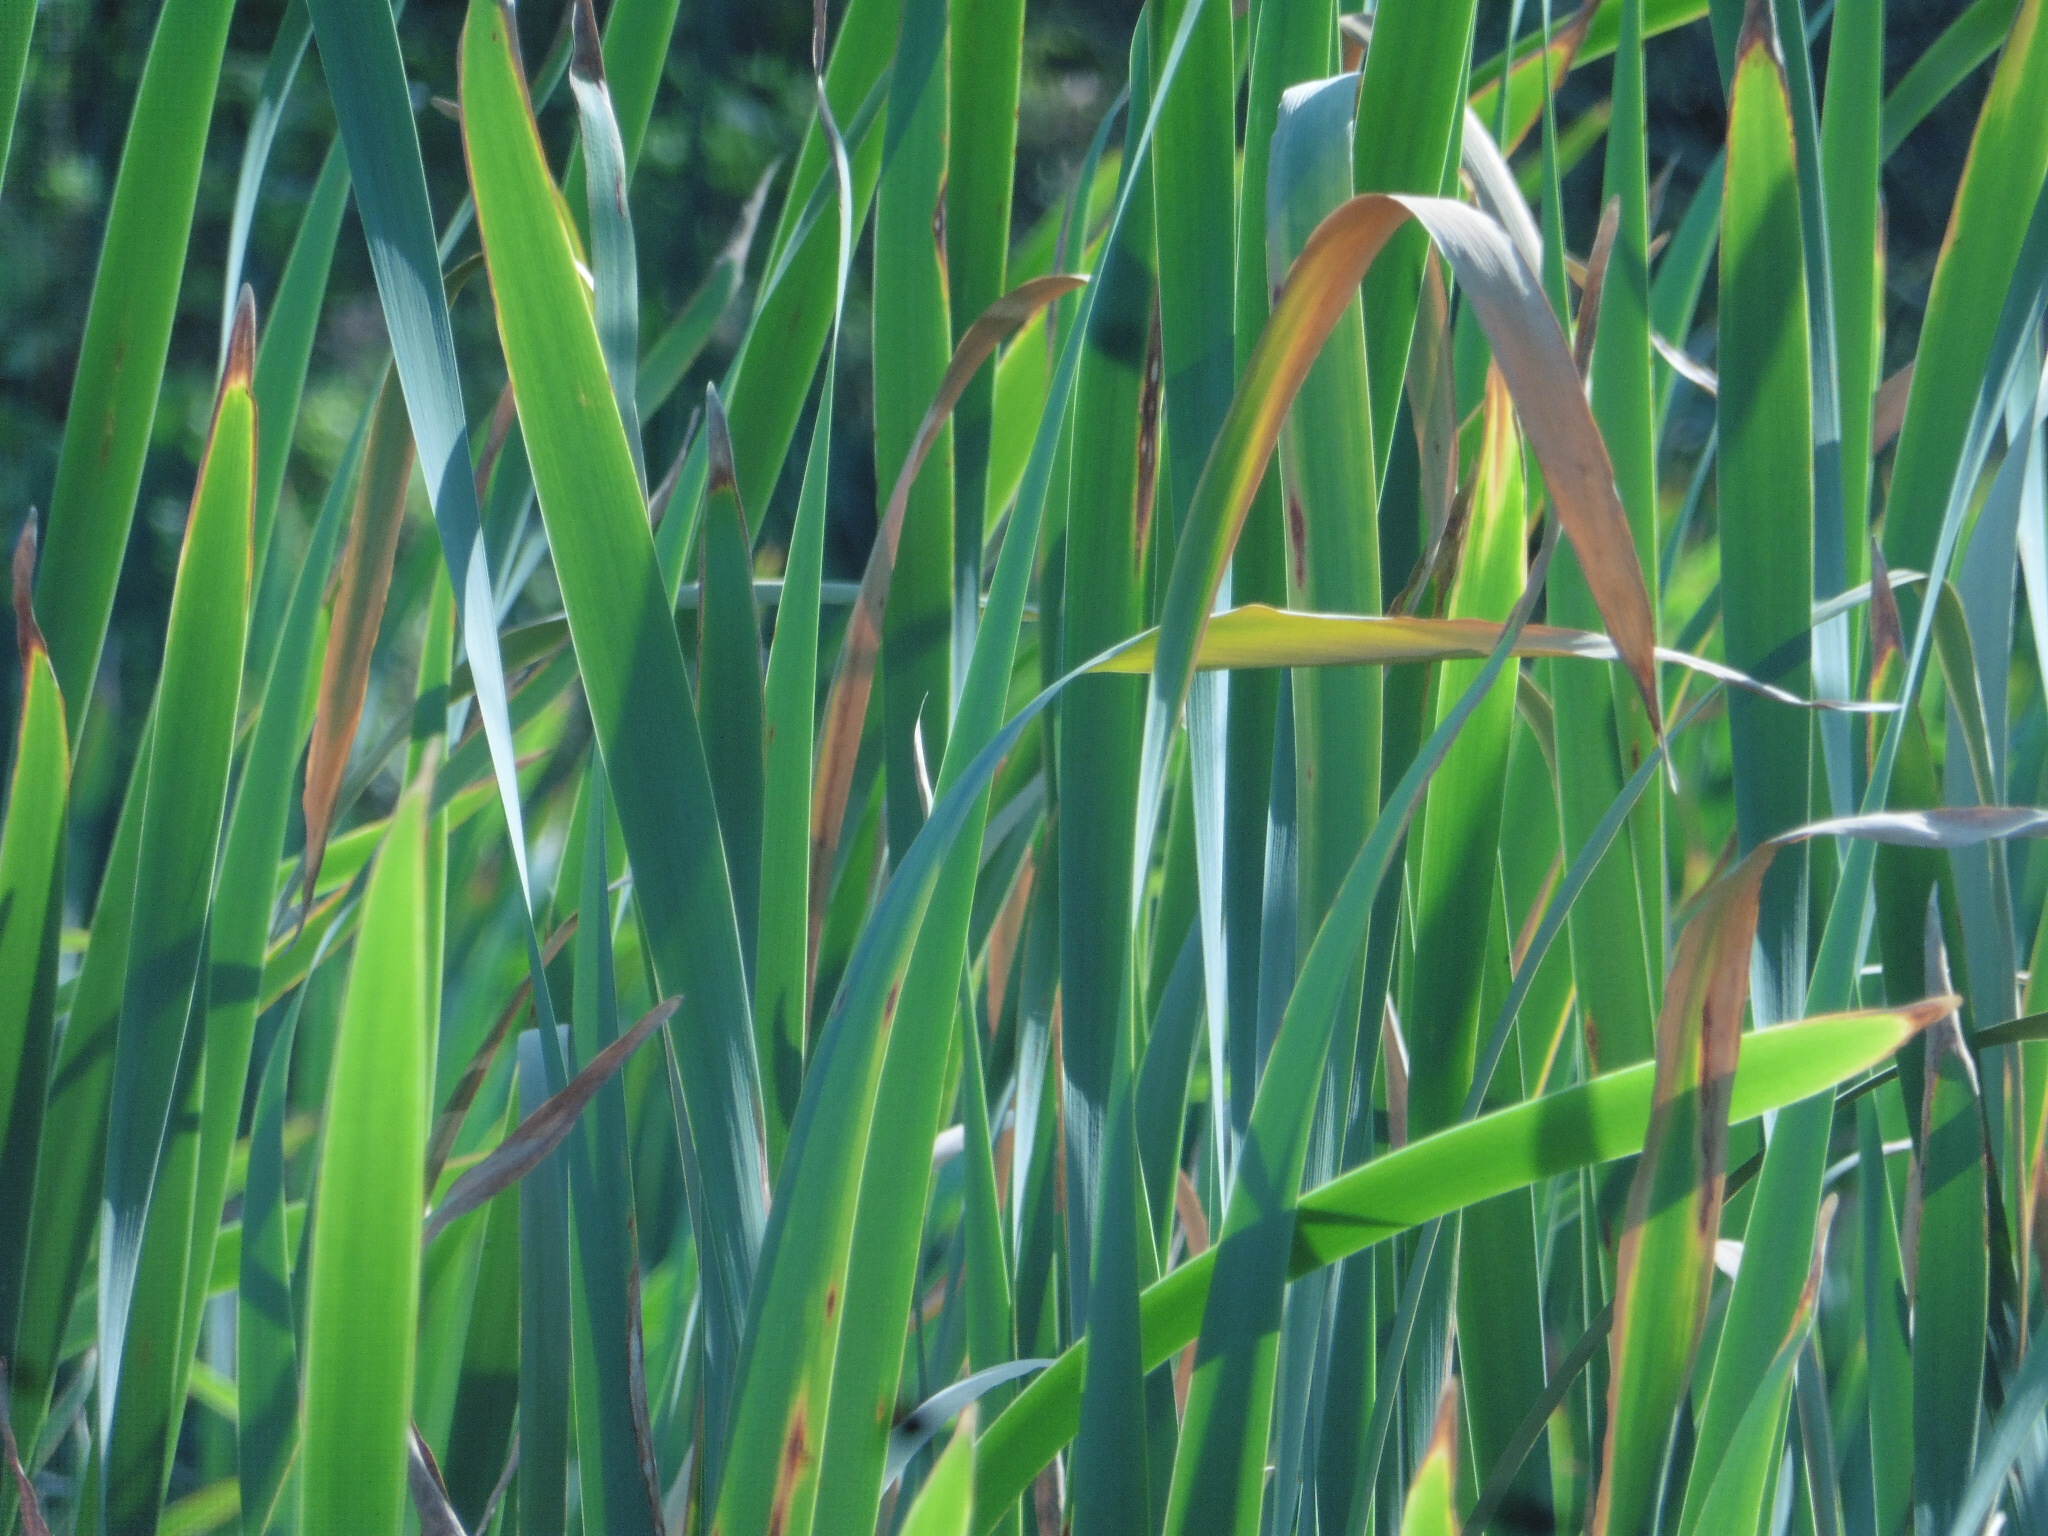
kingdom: Plantae
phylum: Tracheophyta
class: Liliopsida
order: Poales
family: Typhaceae
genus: Typha
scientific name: Typha latifolia
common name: Broadleaf cattail
